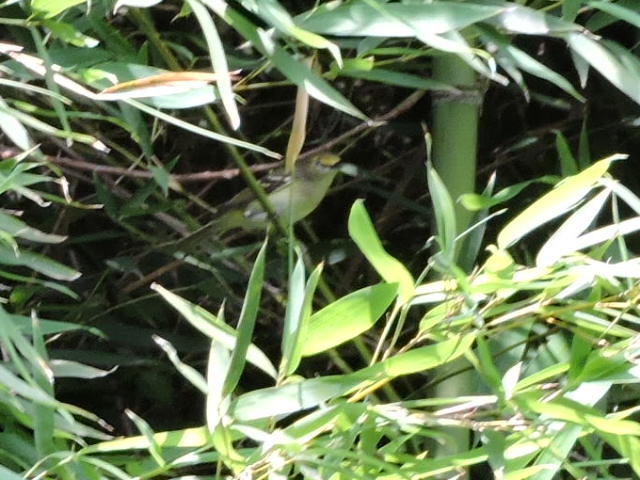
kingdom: Animalia
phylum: Chordata
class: Aves
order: Passeriformes
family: Vireonidae
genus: Vireo
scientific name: Vireo griseus
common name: White-eyed vireo
